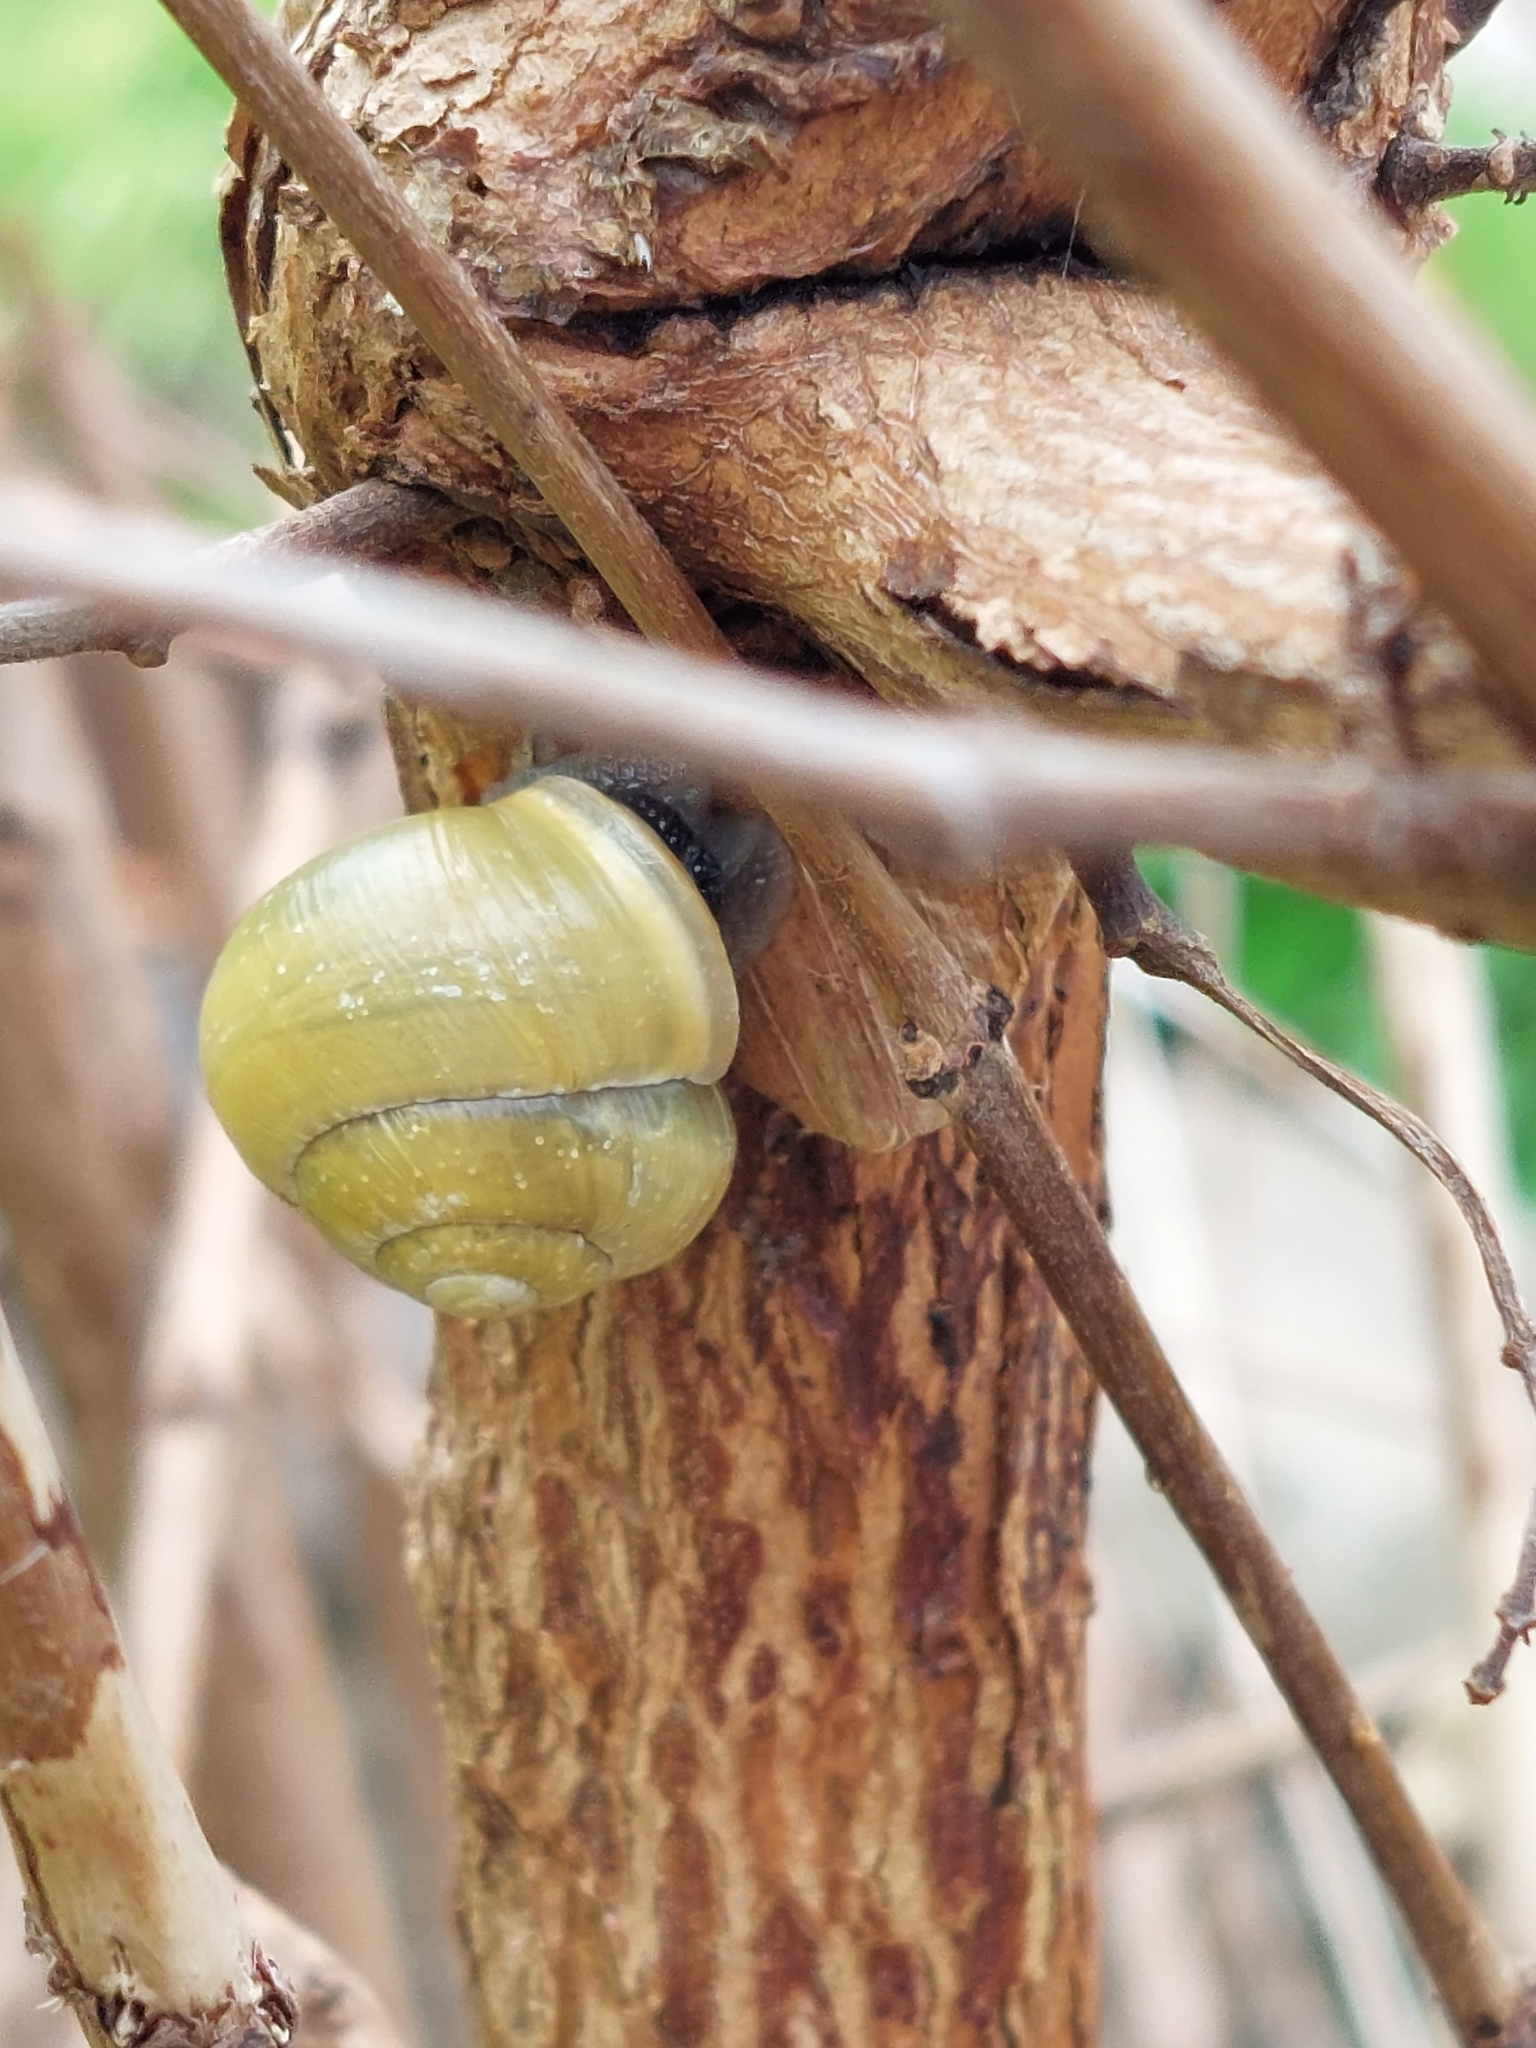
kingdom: Animalia
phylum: Mollusca
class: Gastropoda
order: Stylommatophora
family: Helicidae
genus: Cepaea
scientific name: Cepaea hortensis
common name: White-lip gardensnail
